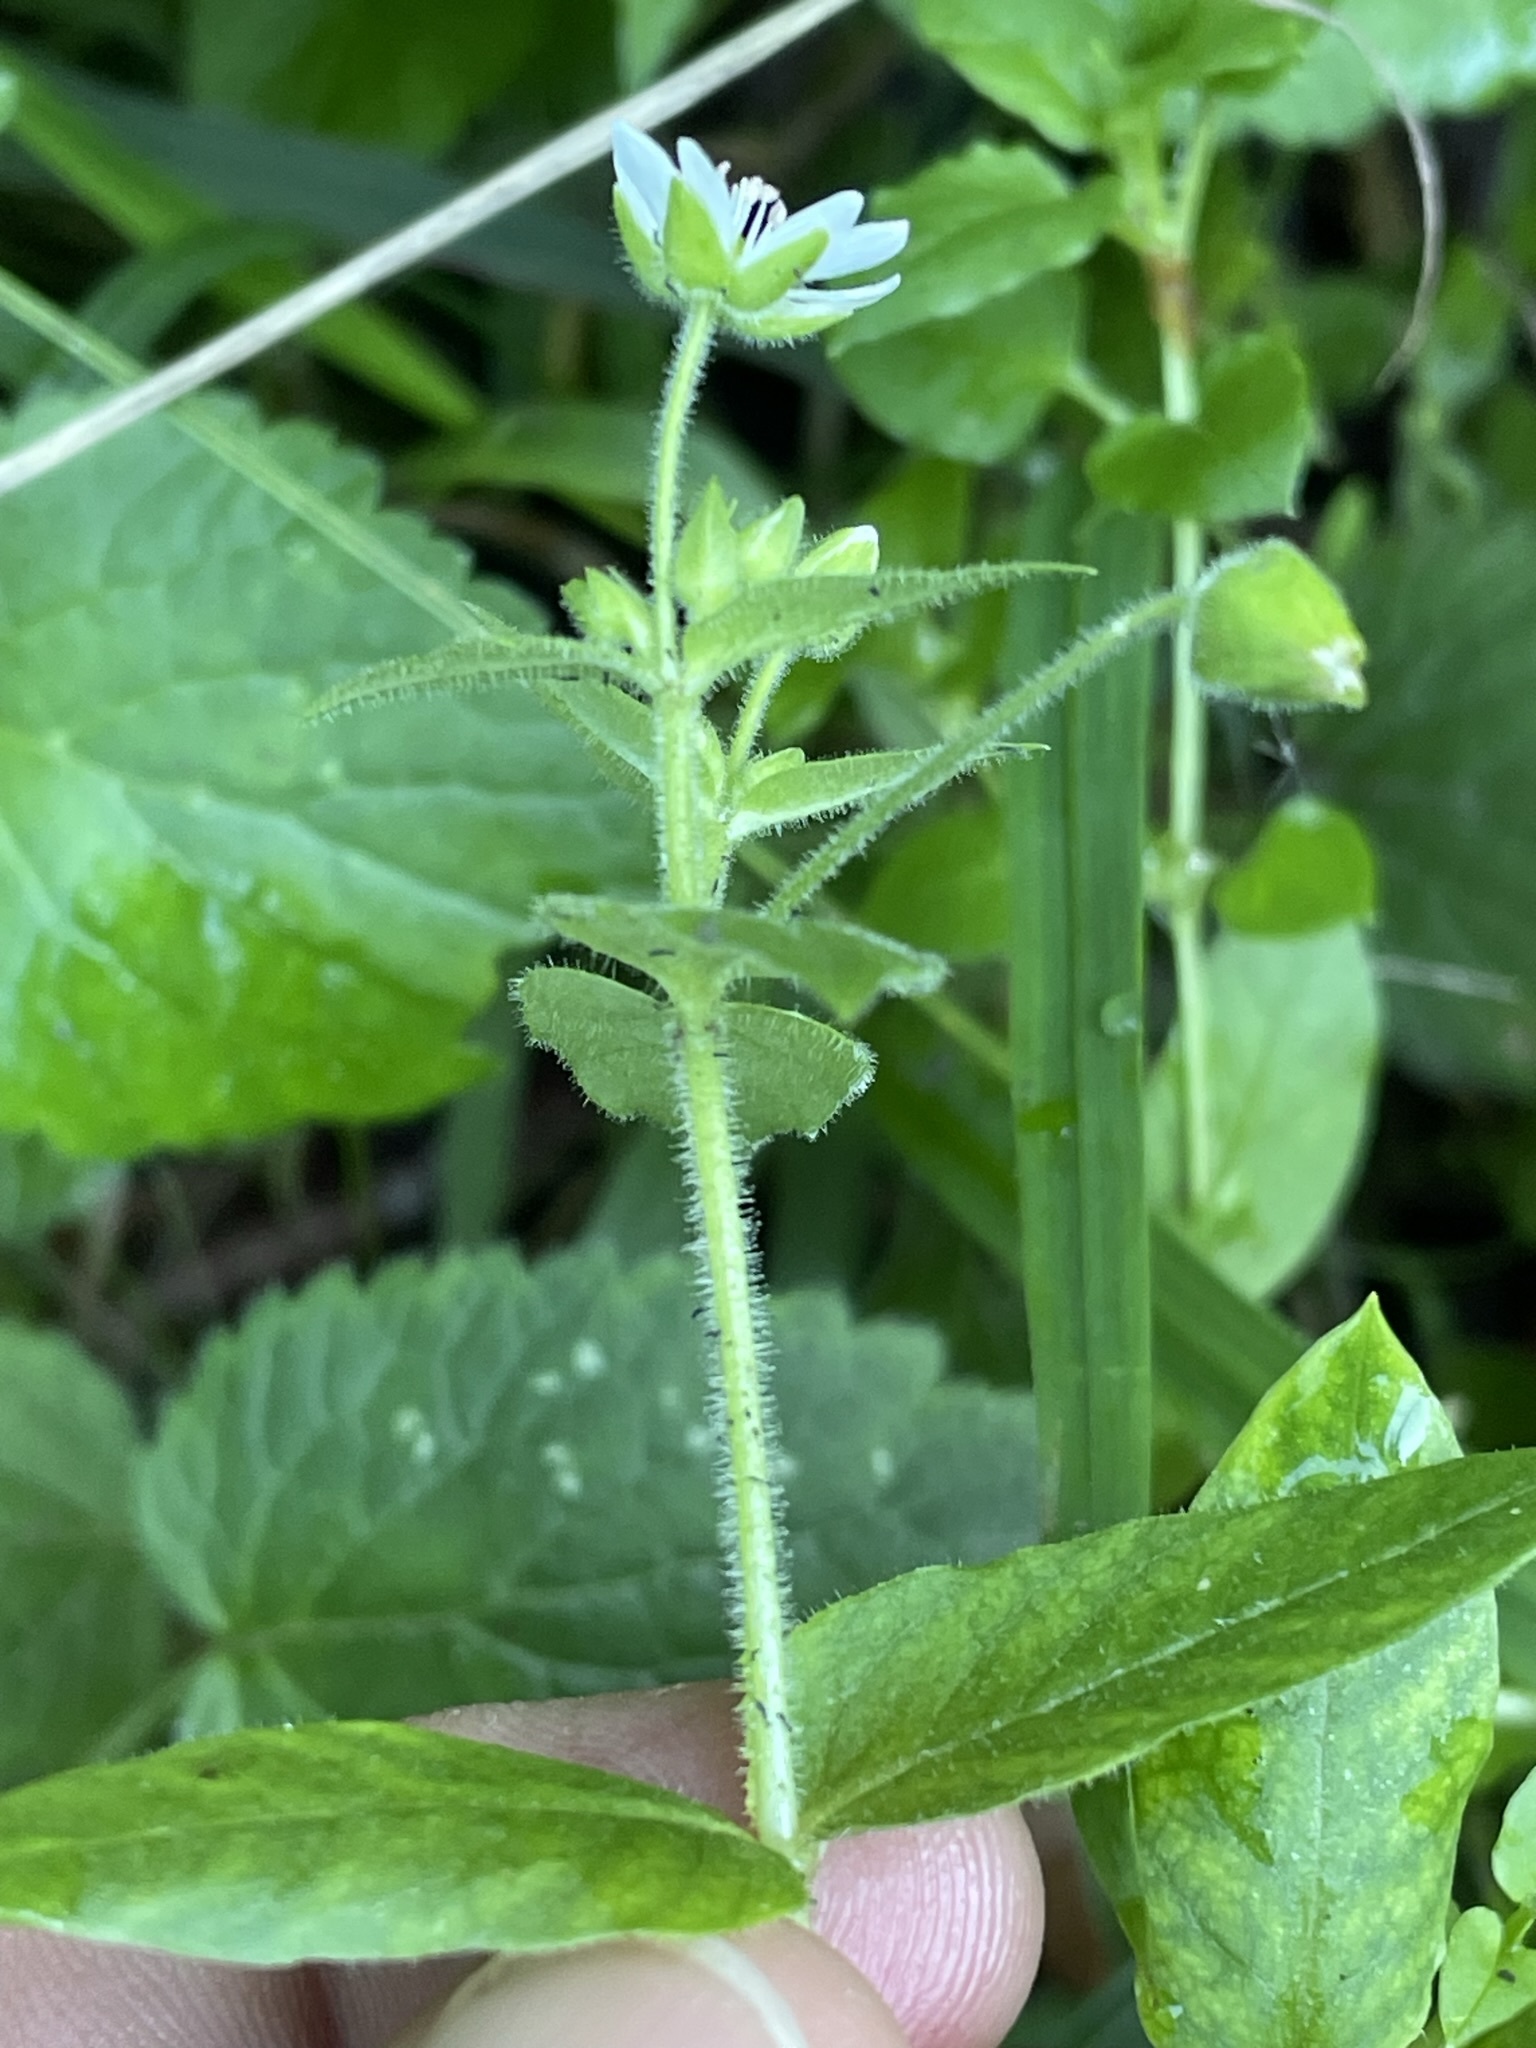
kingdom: Plantae
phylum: Tracheophyta
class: Magnoliopsida
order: Caryophyllales
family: Caryophyllaceae
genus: Stellaria
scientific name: Stellaria aquatica
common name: Water chickweed
